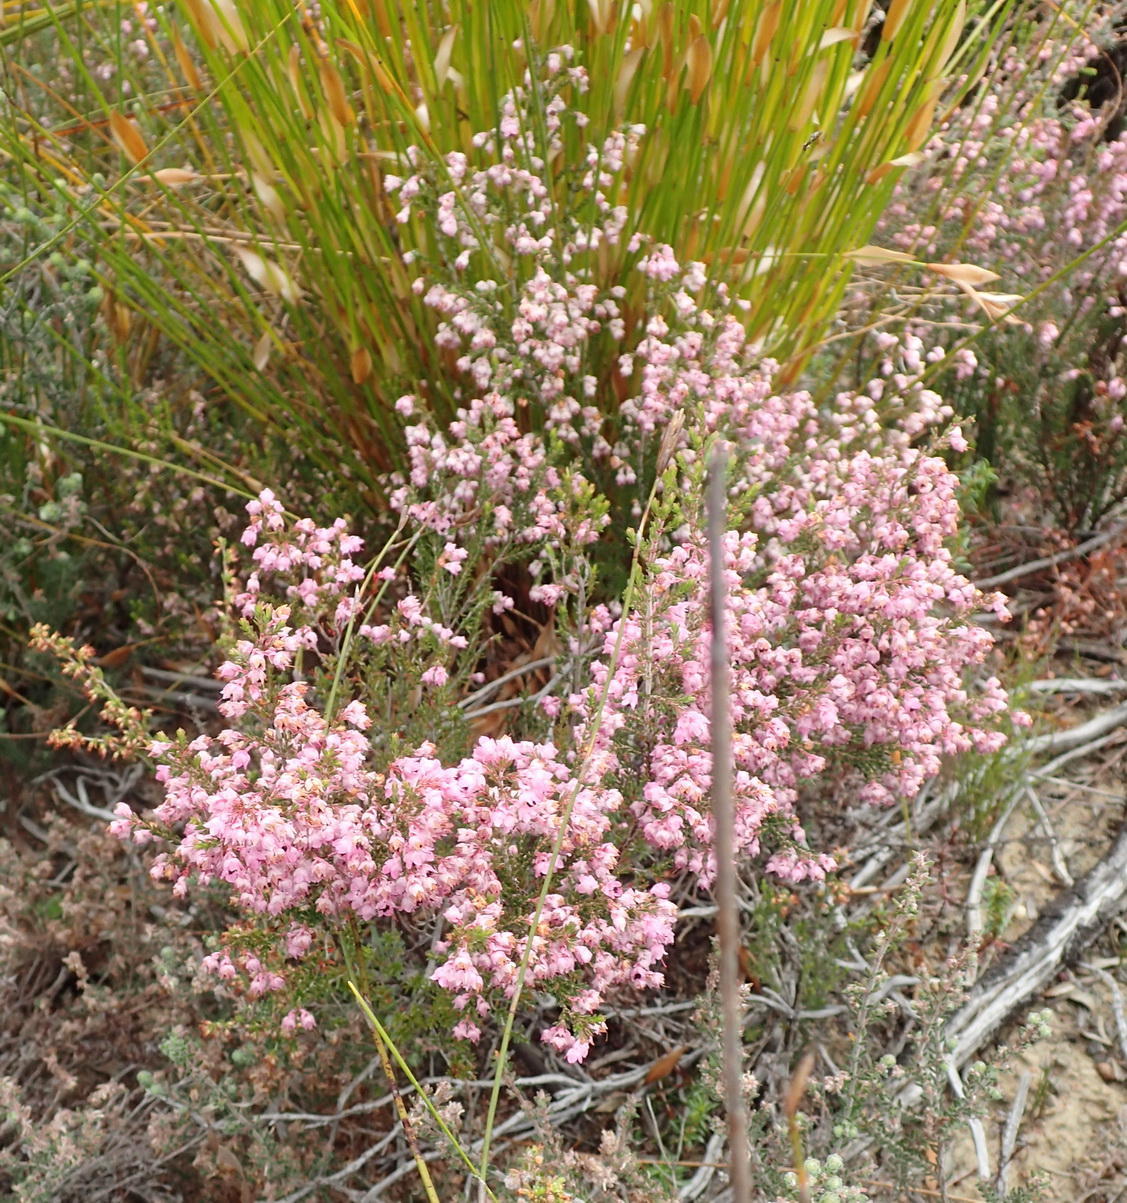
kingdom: Plantae
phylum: Tracheophyta
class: Magnoliopsida
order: Ericales
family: Ericaceae
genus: Erica
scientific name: Erica rhodantha
